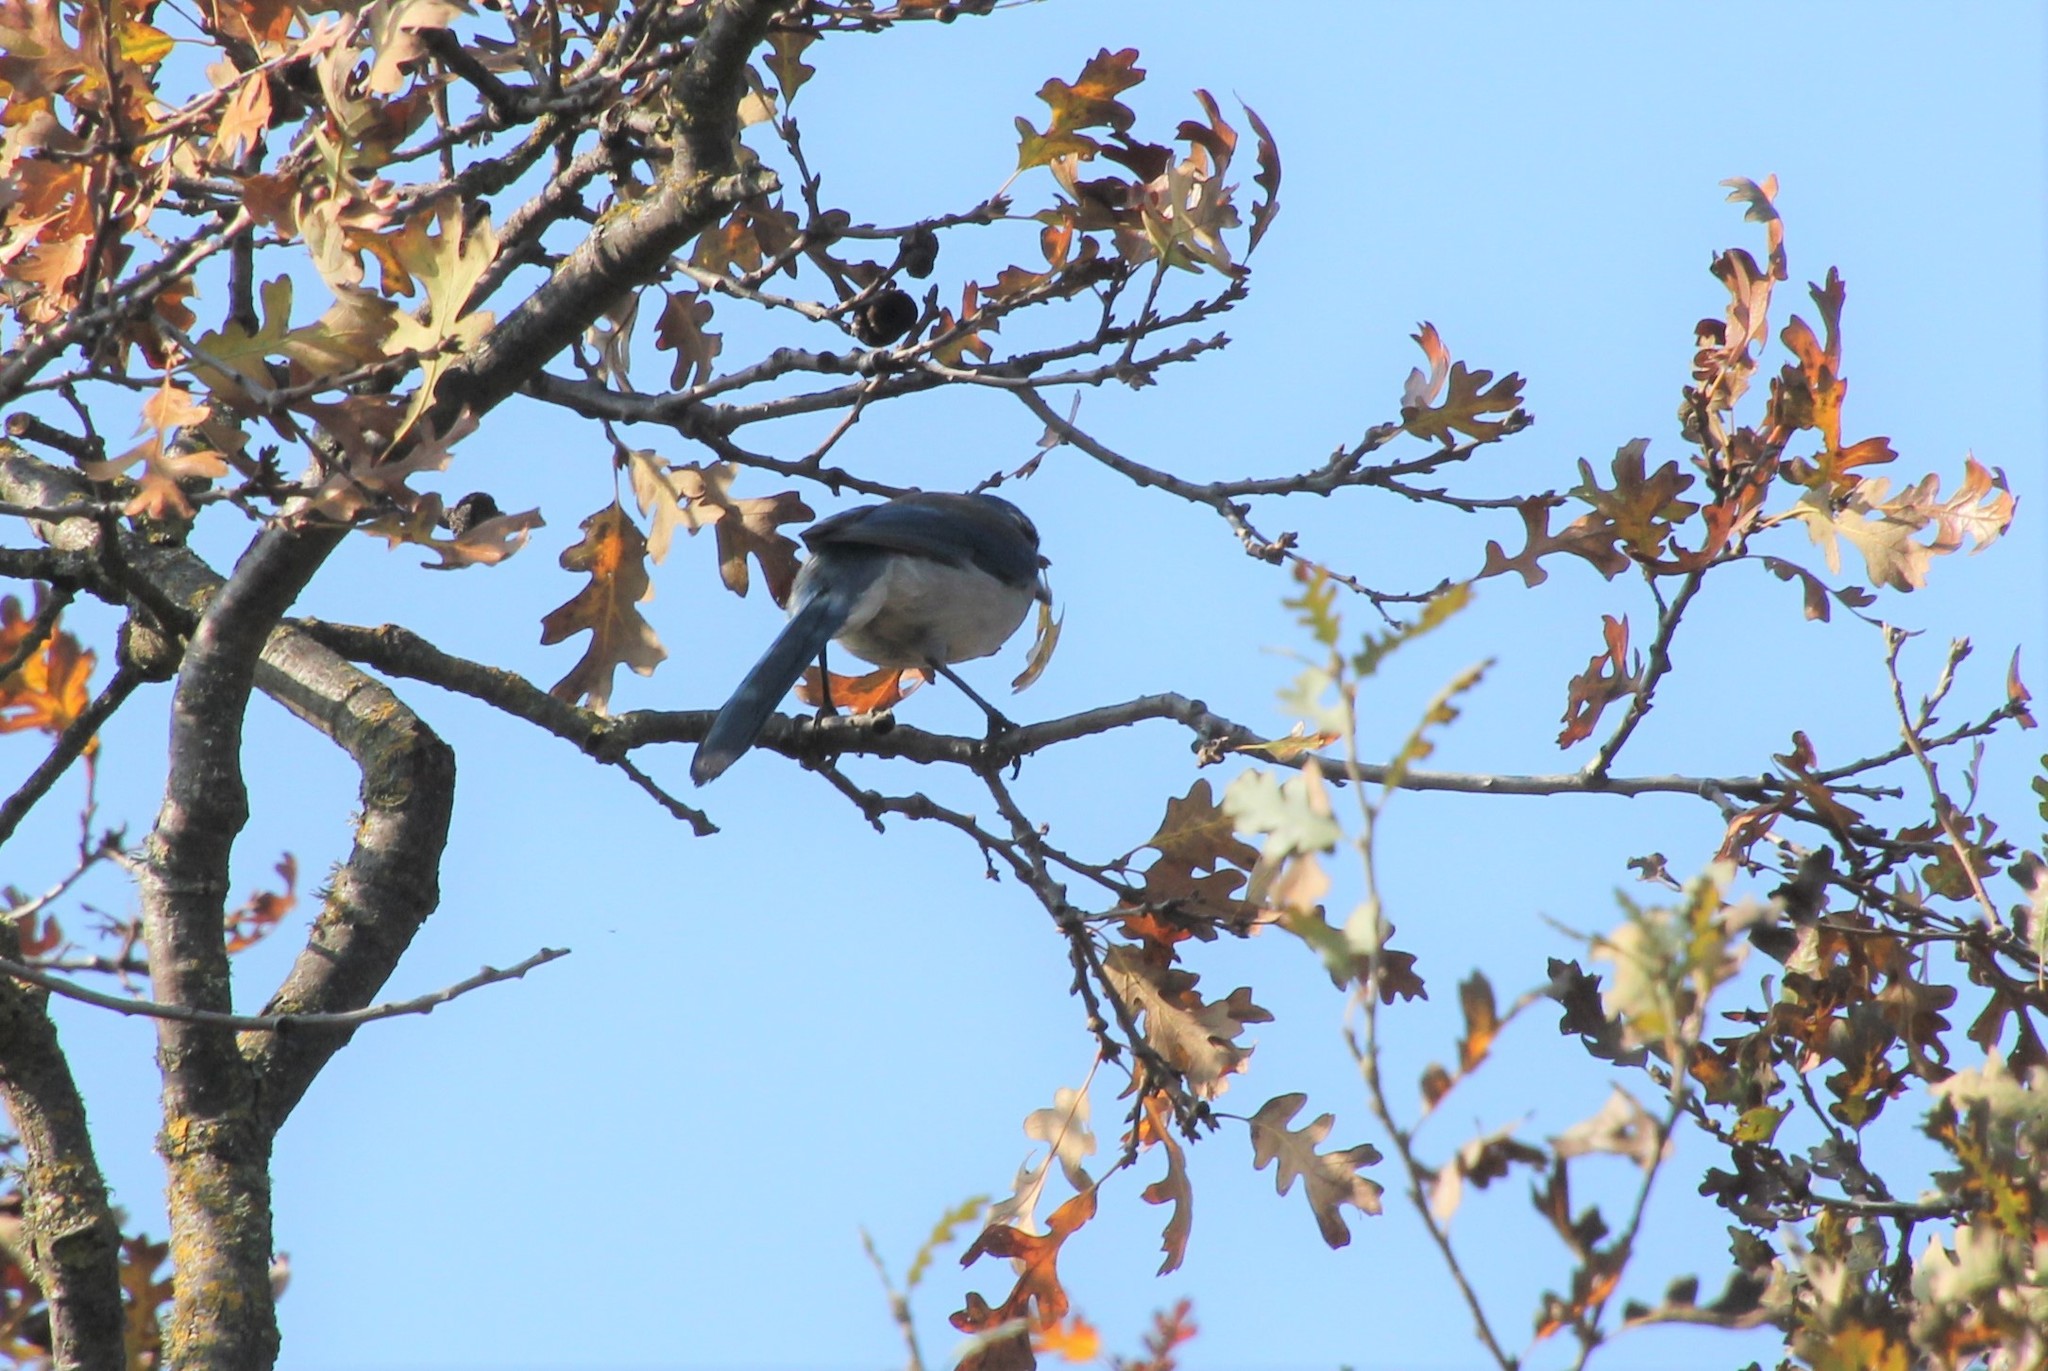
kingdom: Animalia
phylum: Chordata
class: Aves
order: Passeriformes
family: Corvidae
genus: Aphelocoma
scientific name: Aphelocoma californica
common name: California scrub-jay
